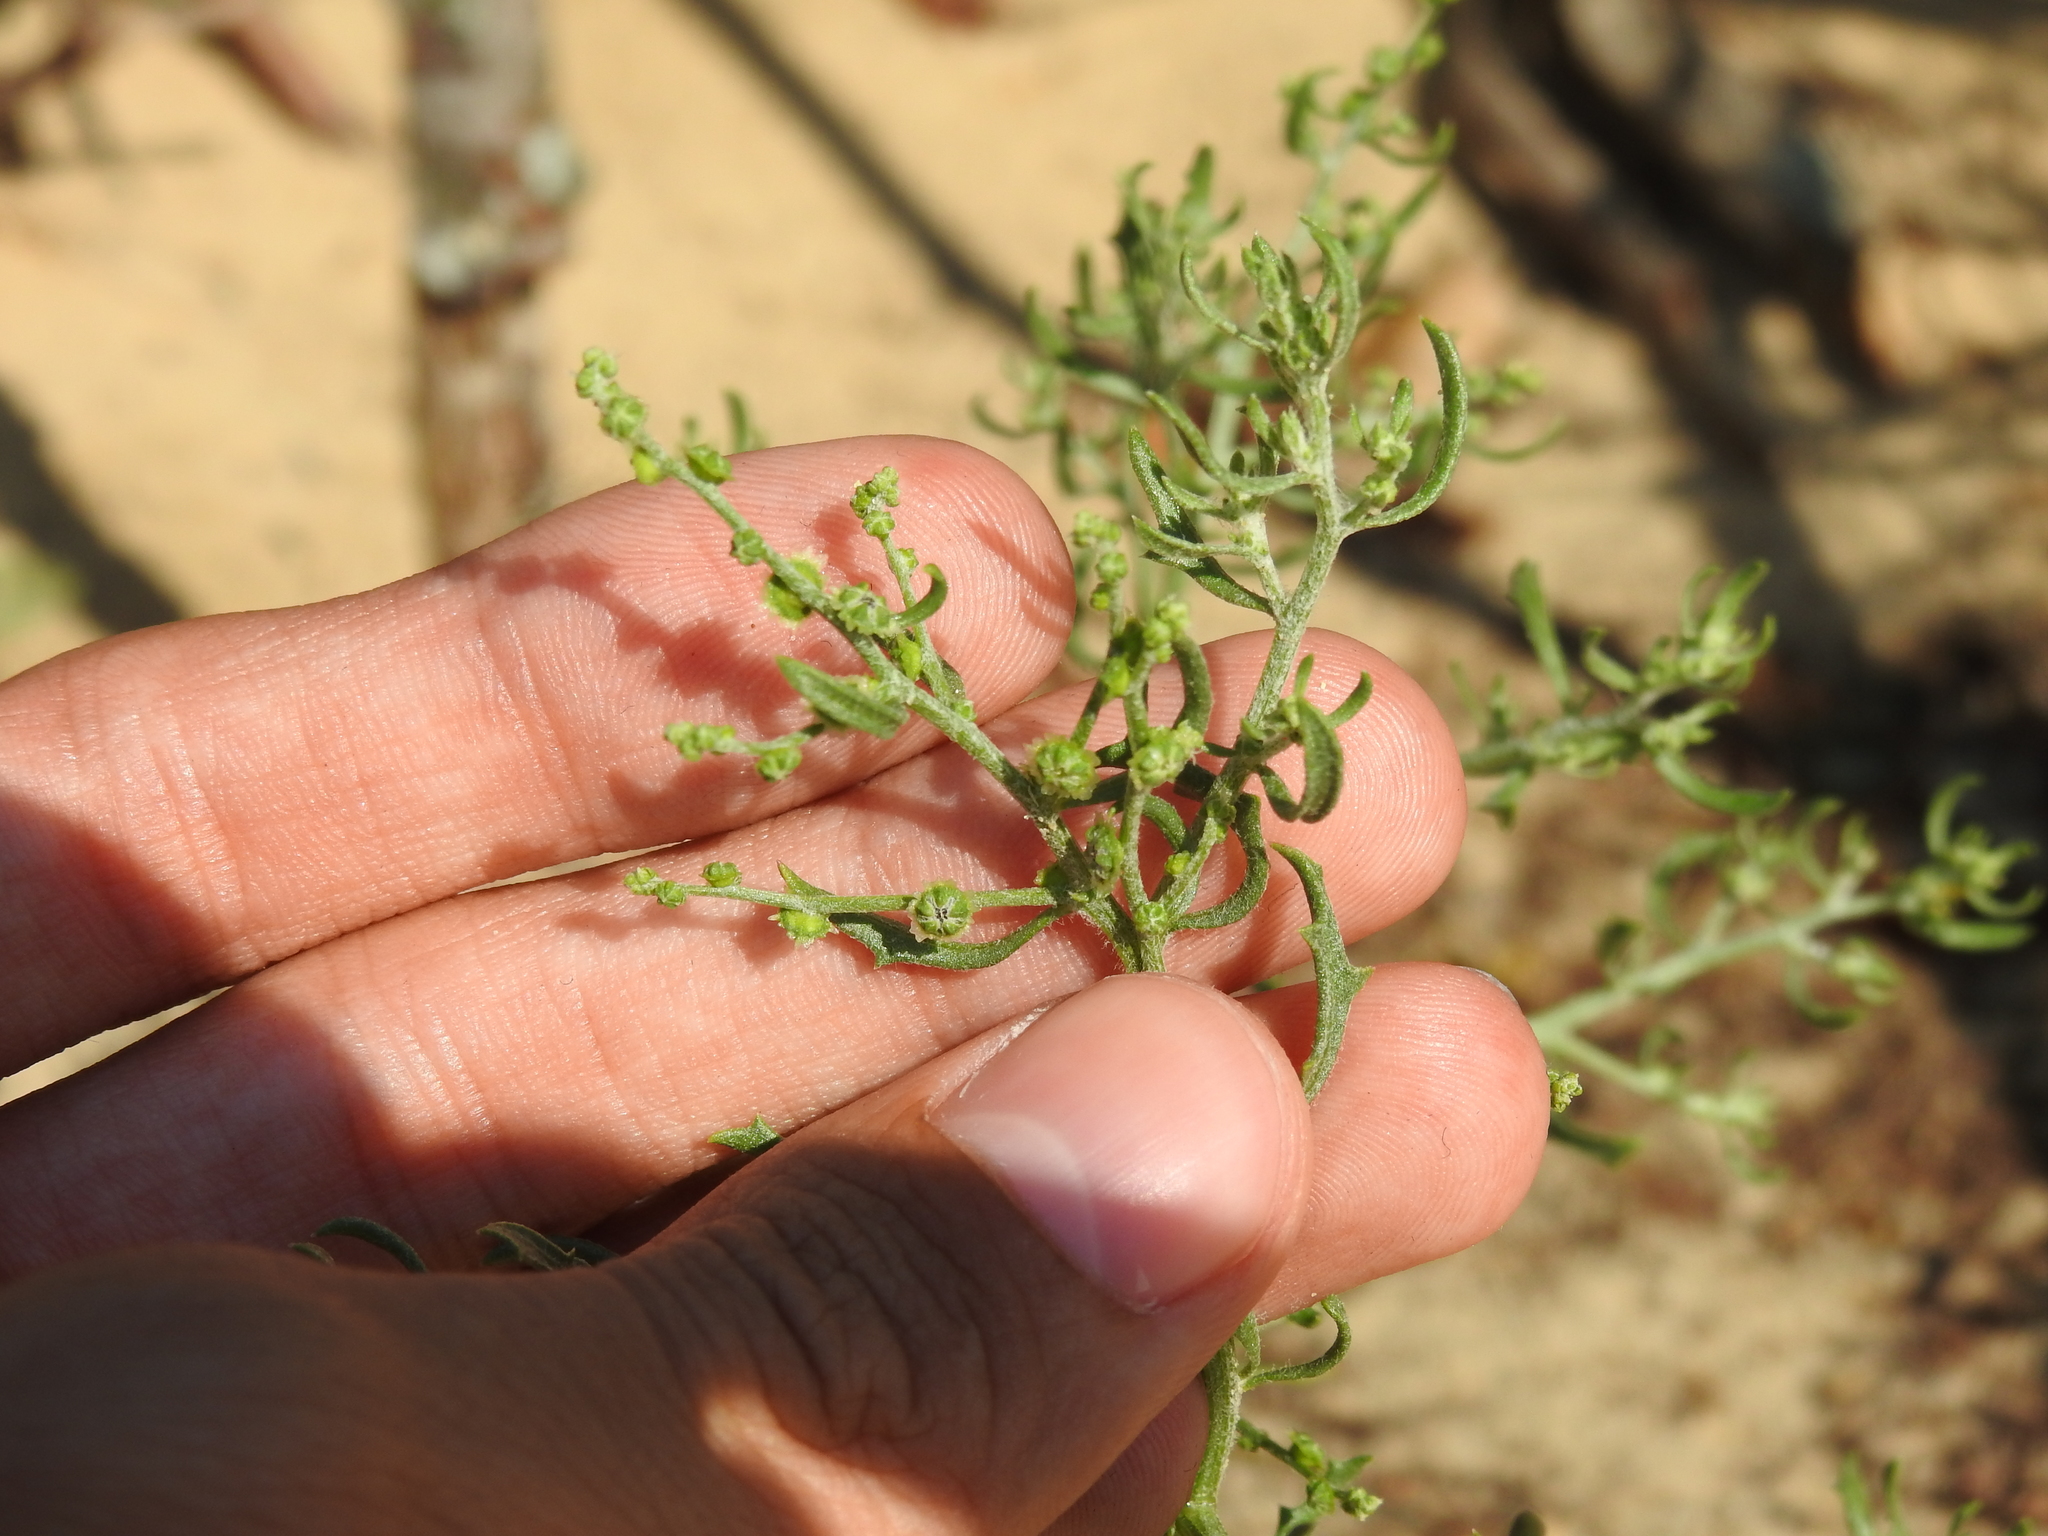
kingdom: Plantae
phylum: Tracheophyta
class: Magnoliopsida
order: Caryophyllales
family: Amaranthaceae
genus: Dysphania
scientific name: Dysphania atriplicifolia
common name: Plains tumbleweed
